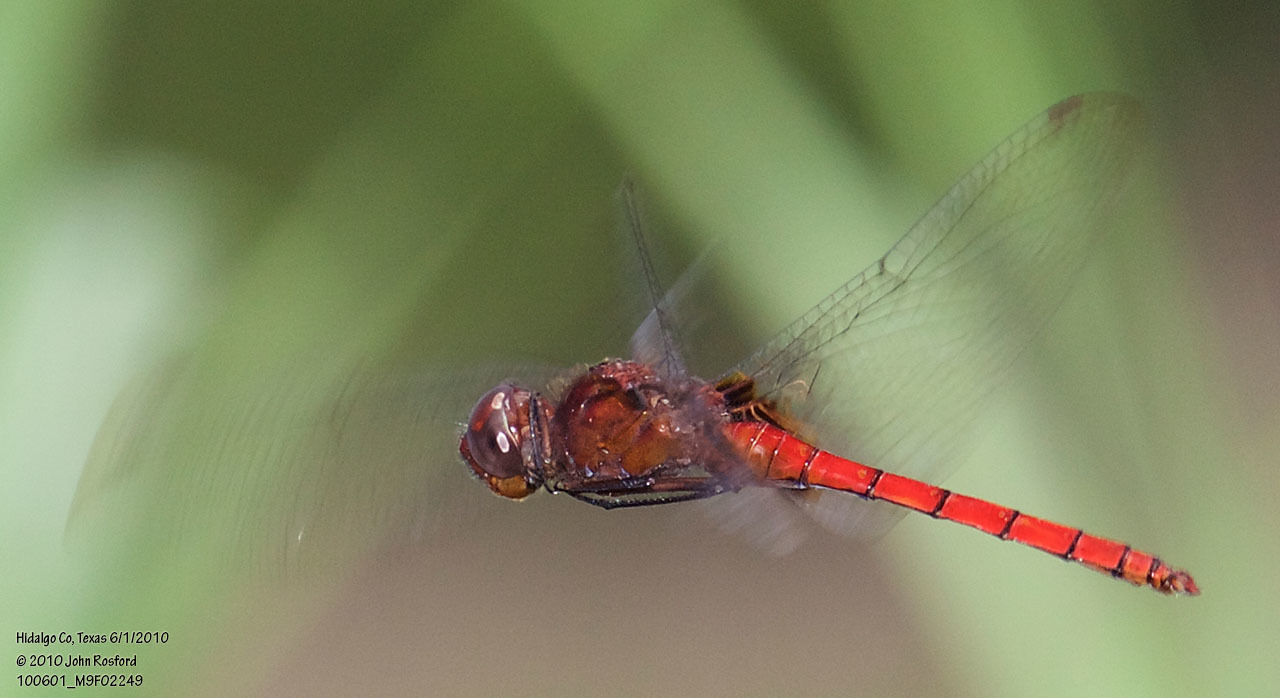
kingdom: Animalia
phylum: Arthropoda
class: Insecta
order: Odonata
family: Libellulidae
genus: Tauriphila
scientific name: Tauriphila argo
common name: Arch-tipped glider
